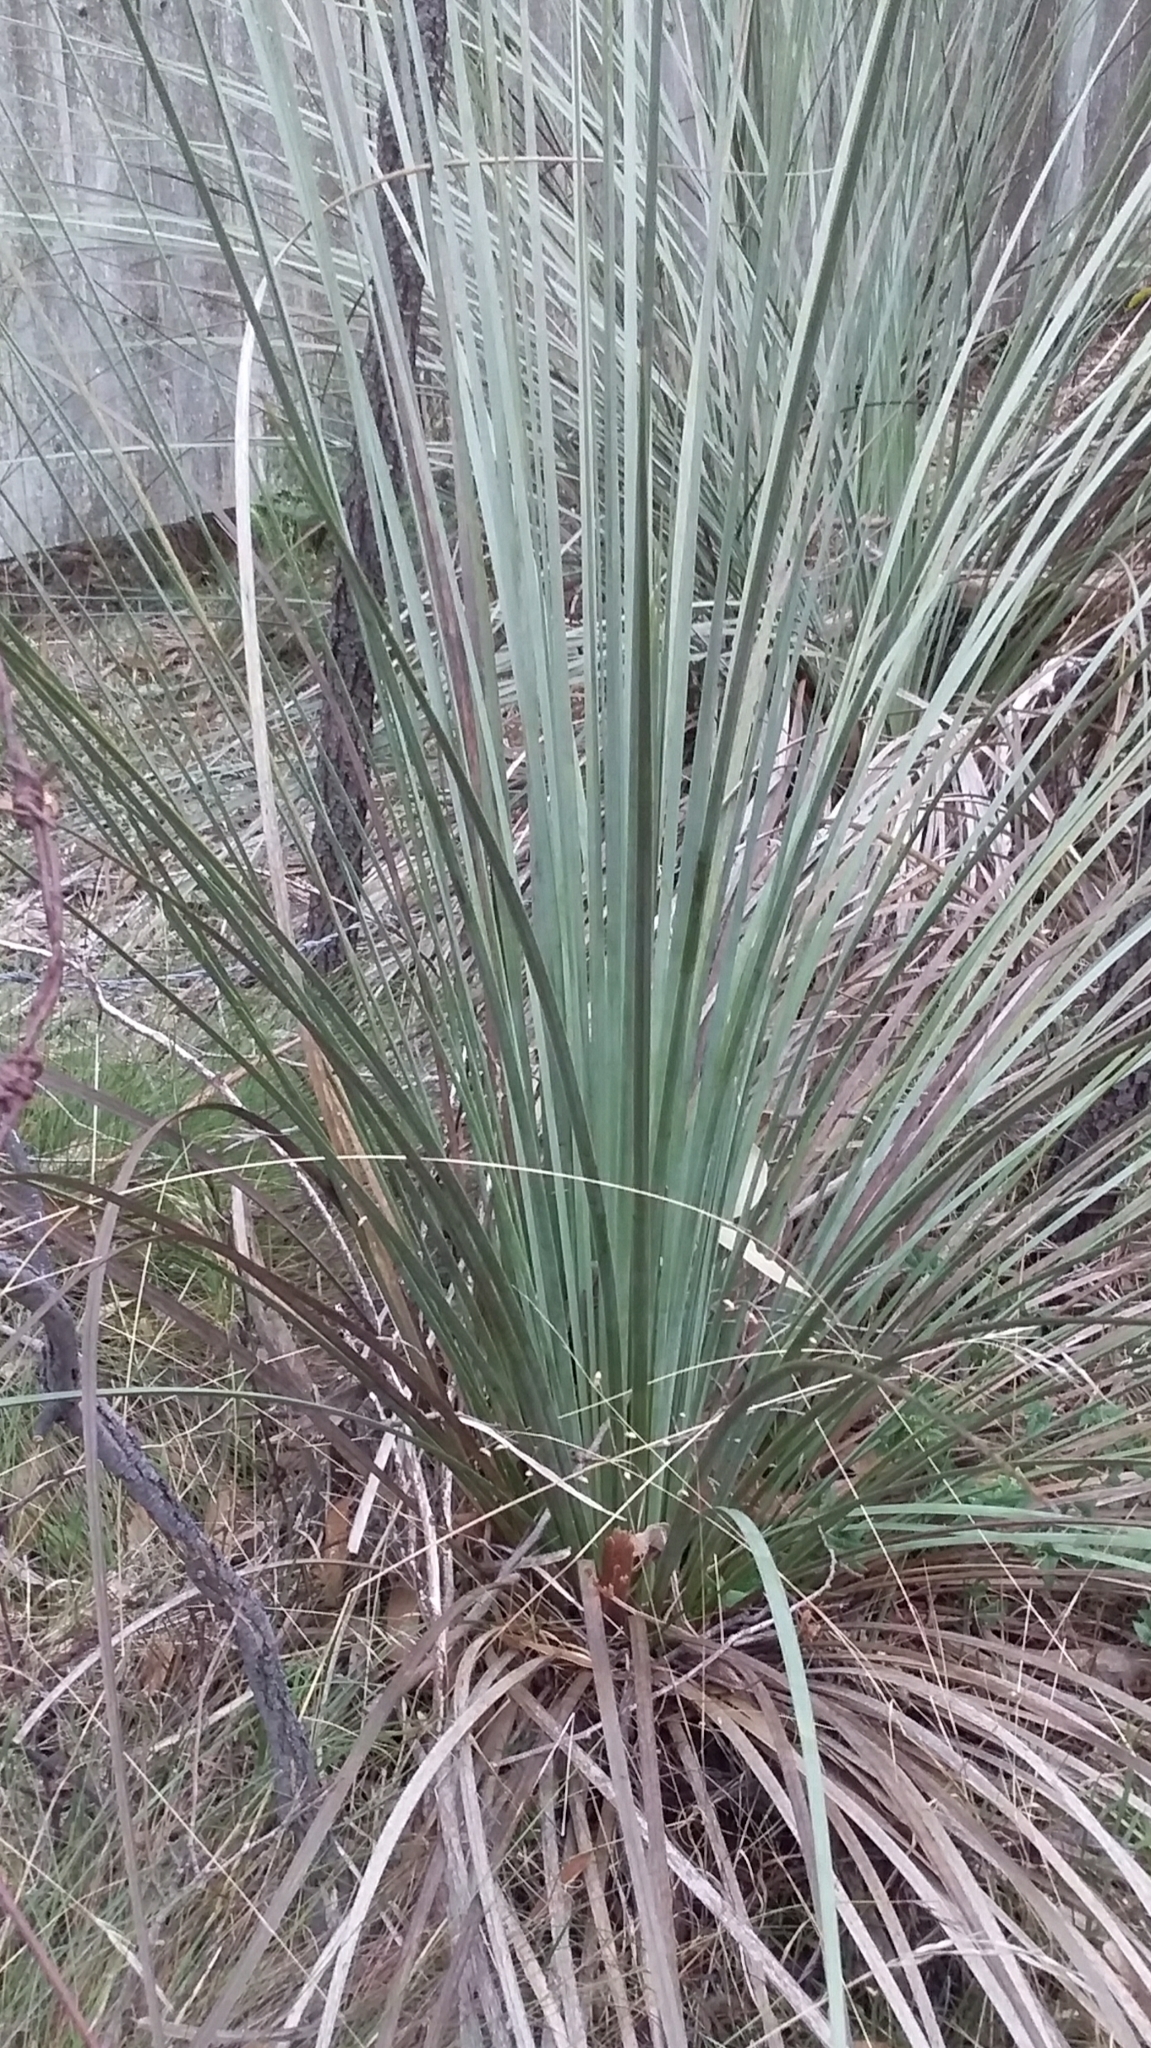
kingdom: Plantae
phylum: Tracheophyta
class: Liliopsida
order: Asparagales
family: Asphodelaceae
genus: Xanthorrhoea
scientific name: Xanthorrhoea semiplana
